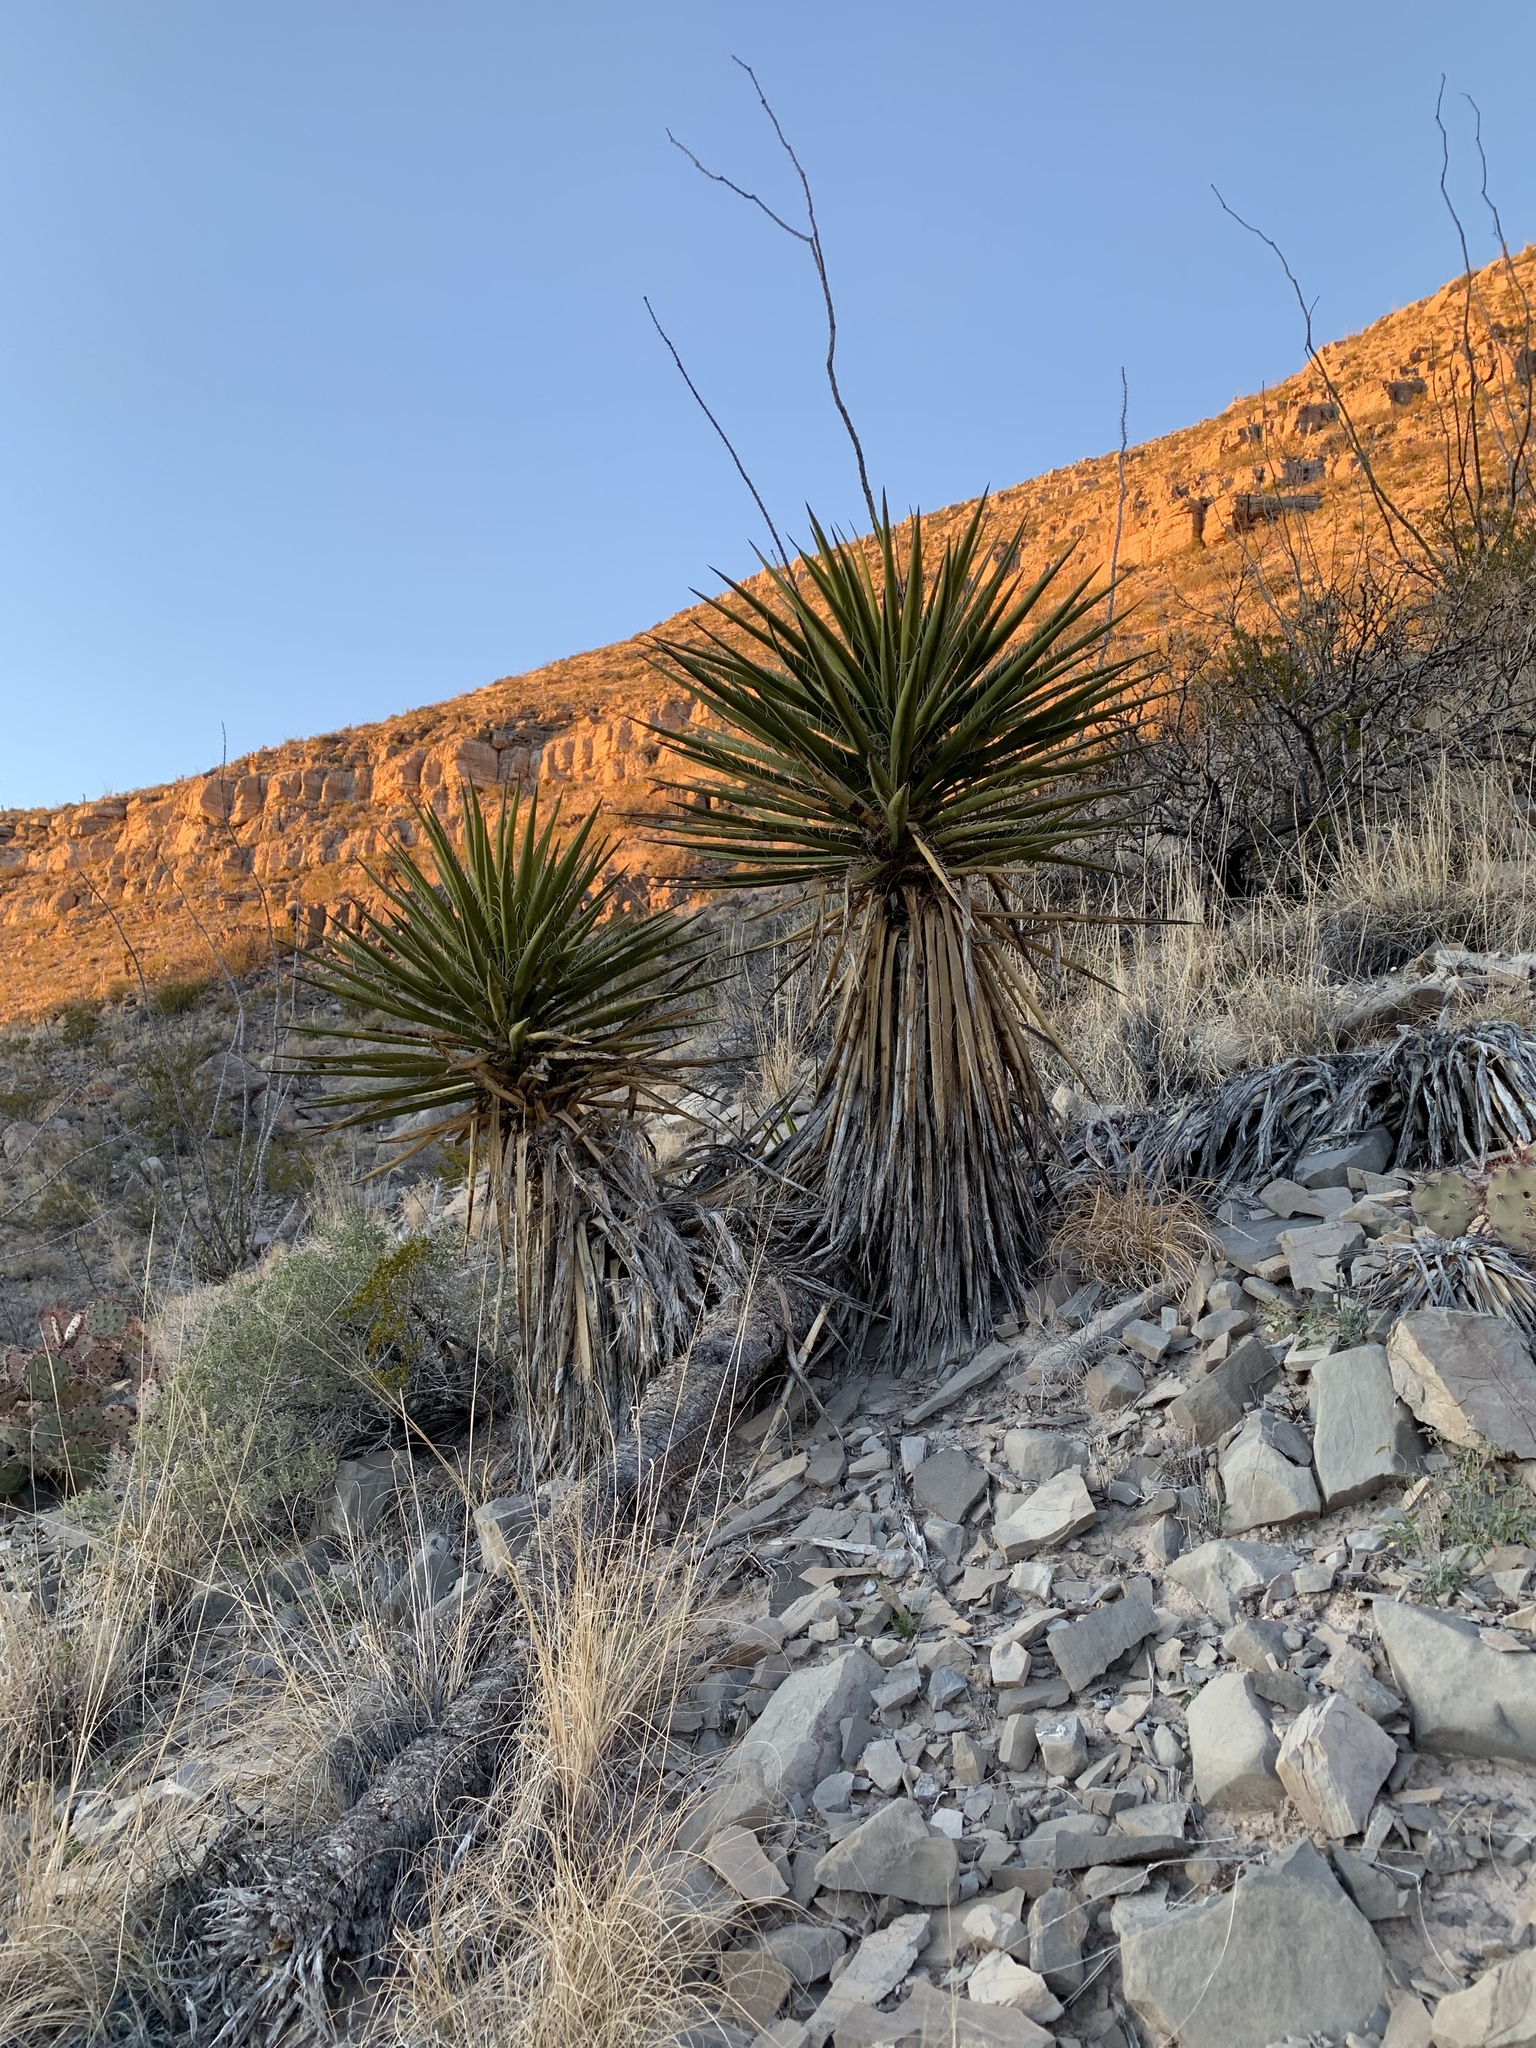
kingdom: Plantae
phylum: Tracheophyta
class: Liliopsida
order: Asparagales
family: Asparagaceae
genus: Yucca
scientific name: Yucca treculiana
